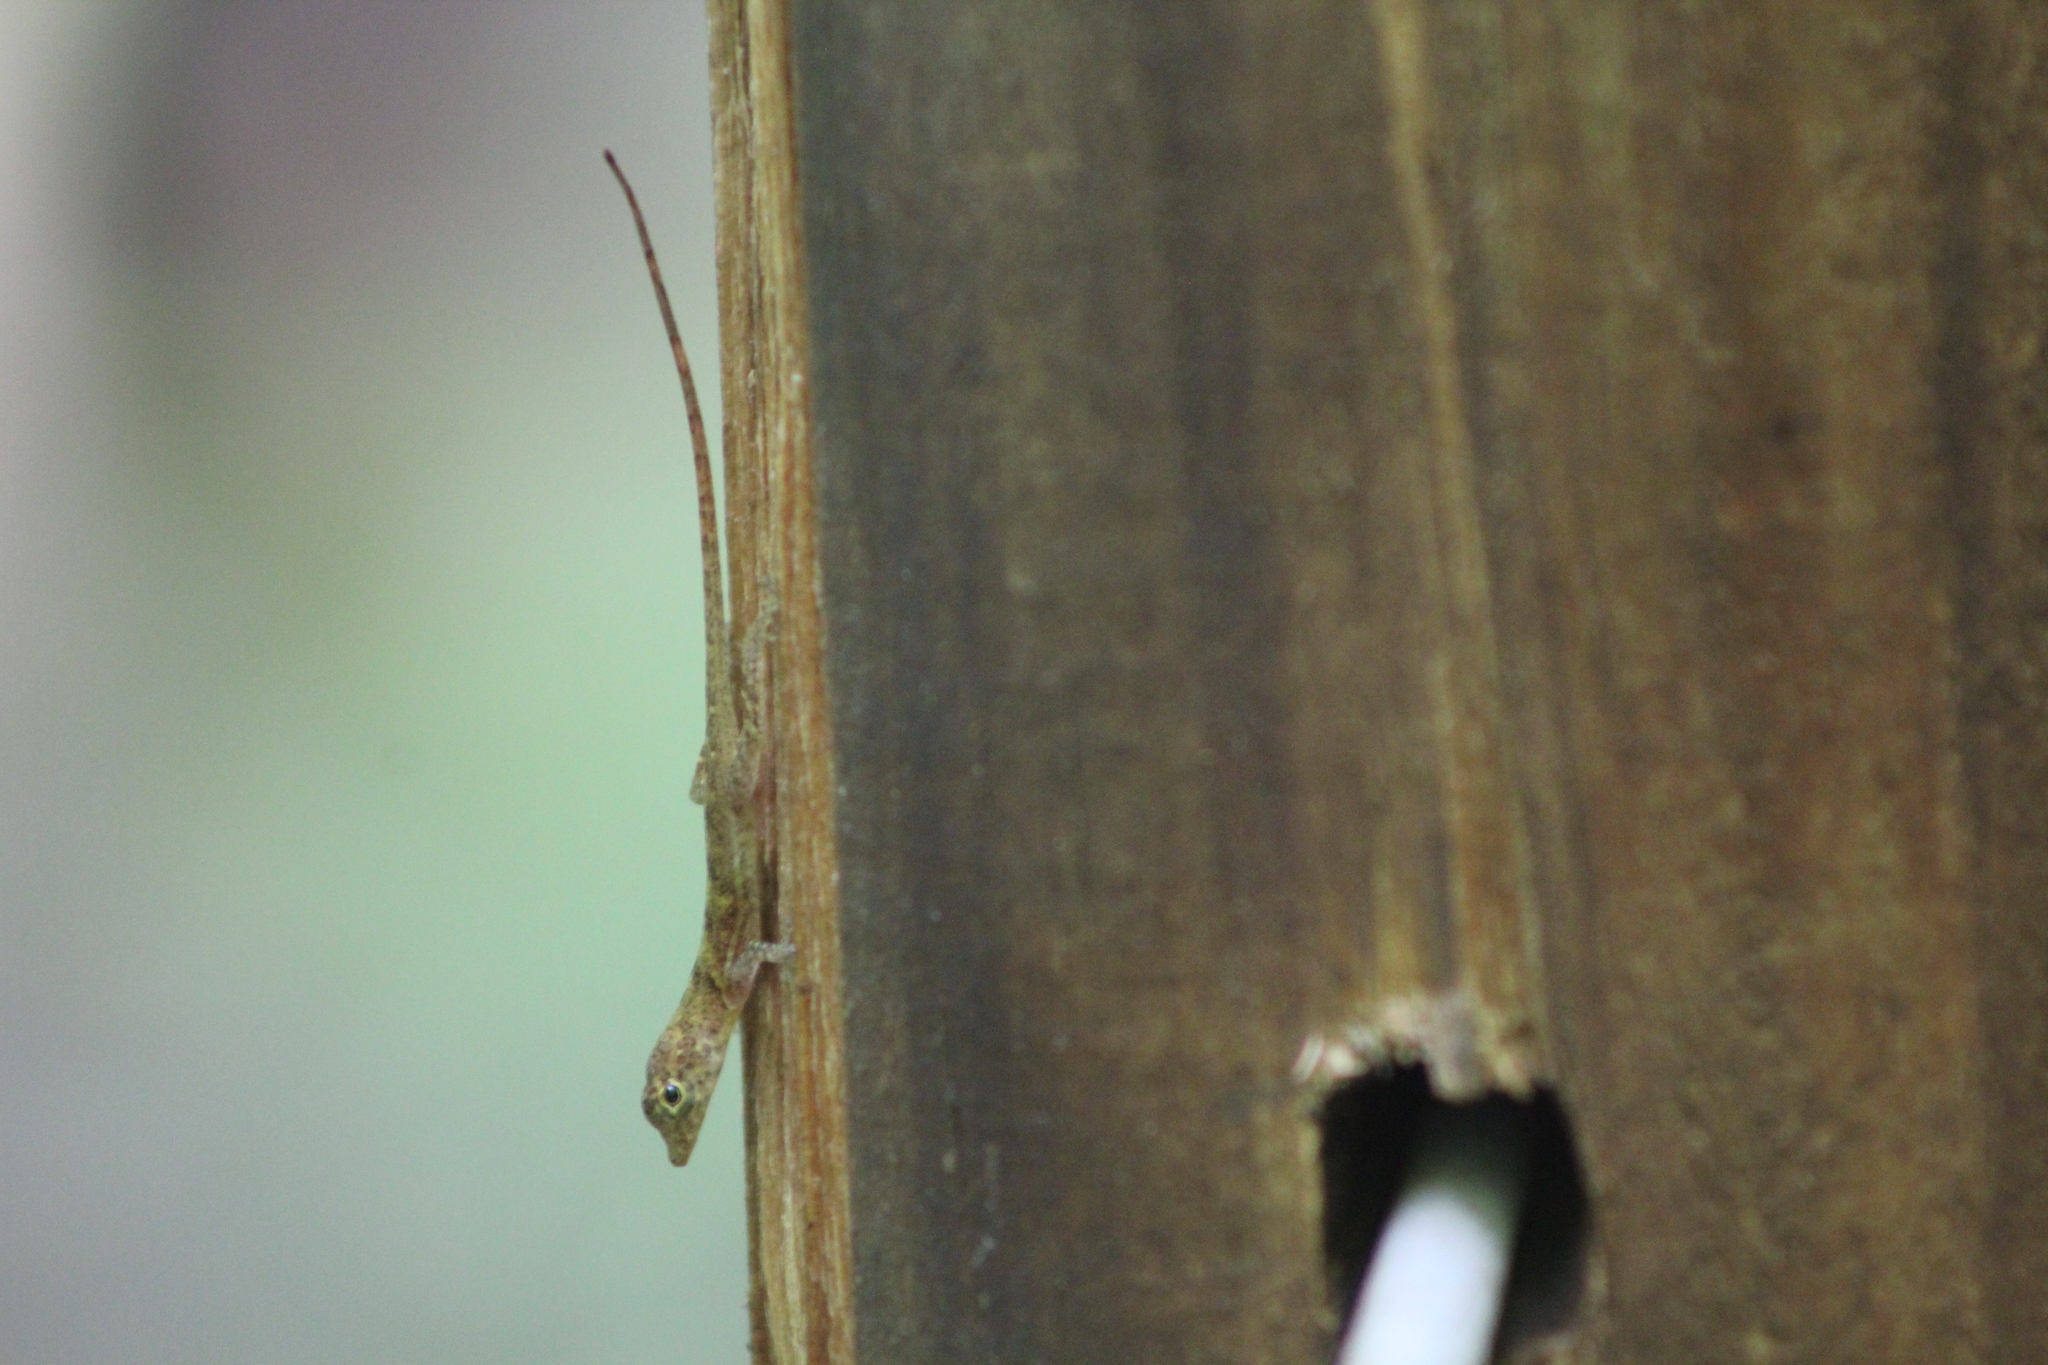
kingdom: Animalia
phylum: Chordata
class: Squamata
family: Dactyloidae
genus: Anolis
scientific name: Anolis polylepis
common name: Many-scaled anole
